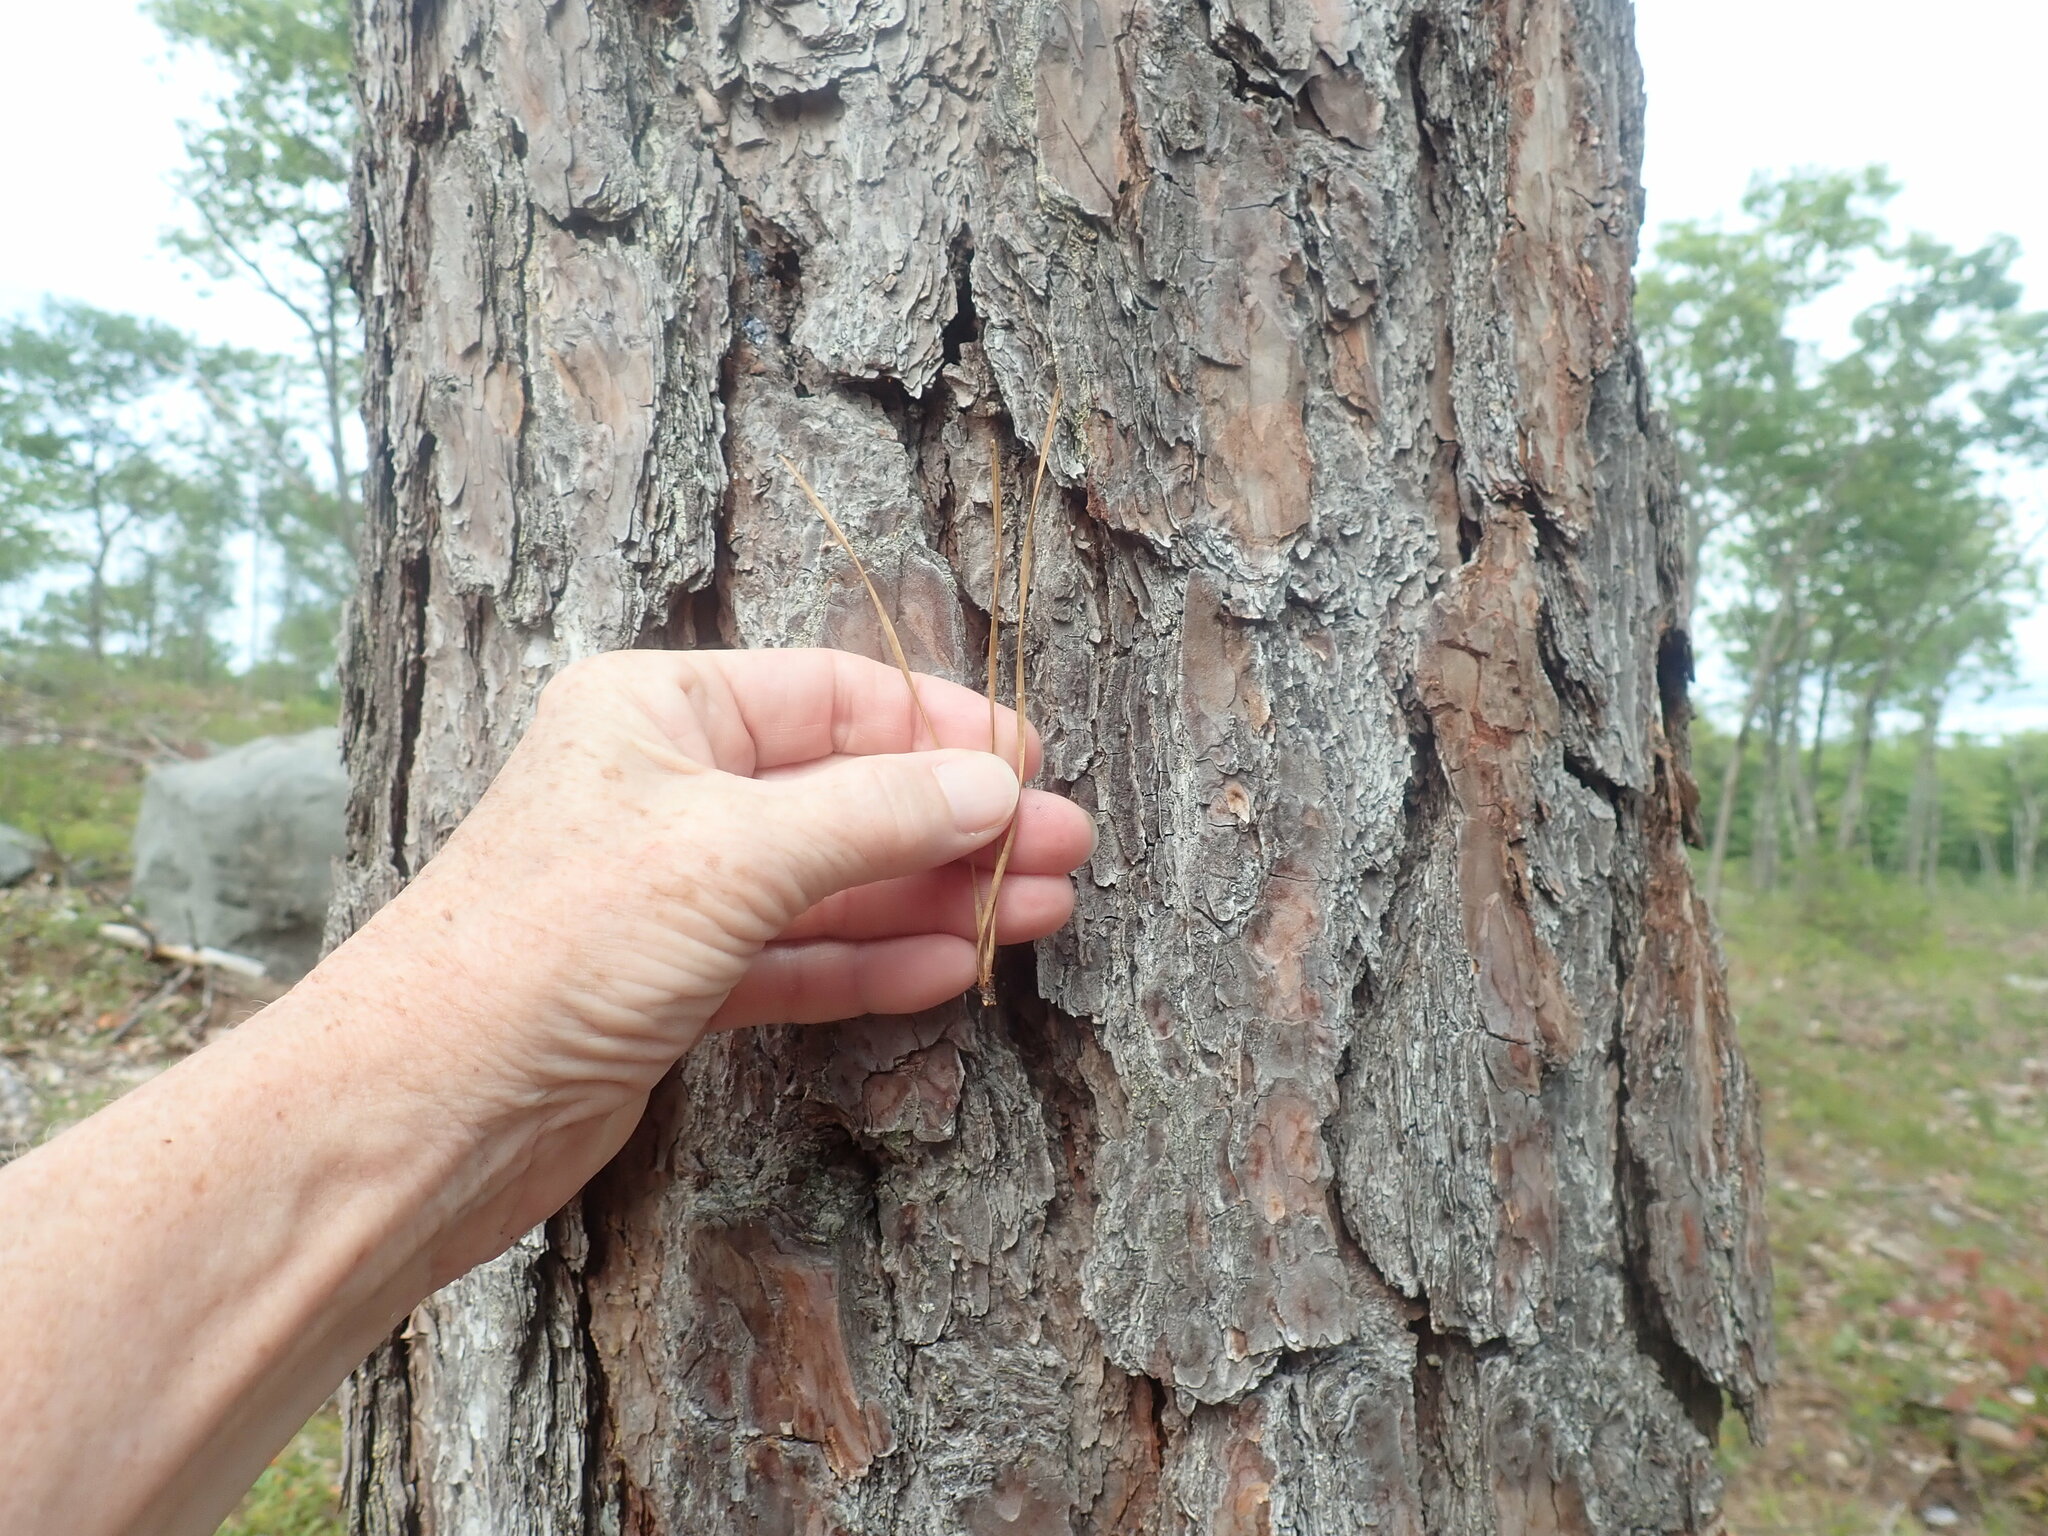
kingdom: Plantae
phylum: Tracheophyta
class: Pinopsida
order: Pinales
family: Pinaceae
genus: Pinus
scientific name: Pinus rigida
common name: Pitch pine
